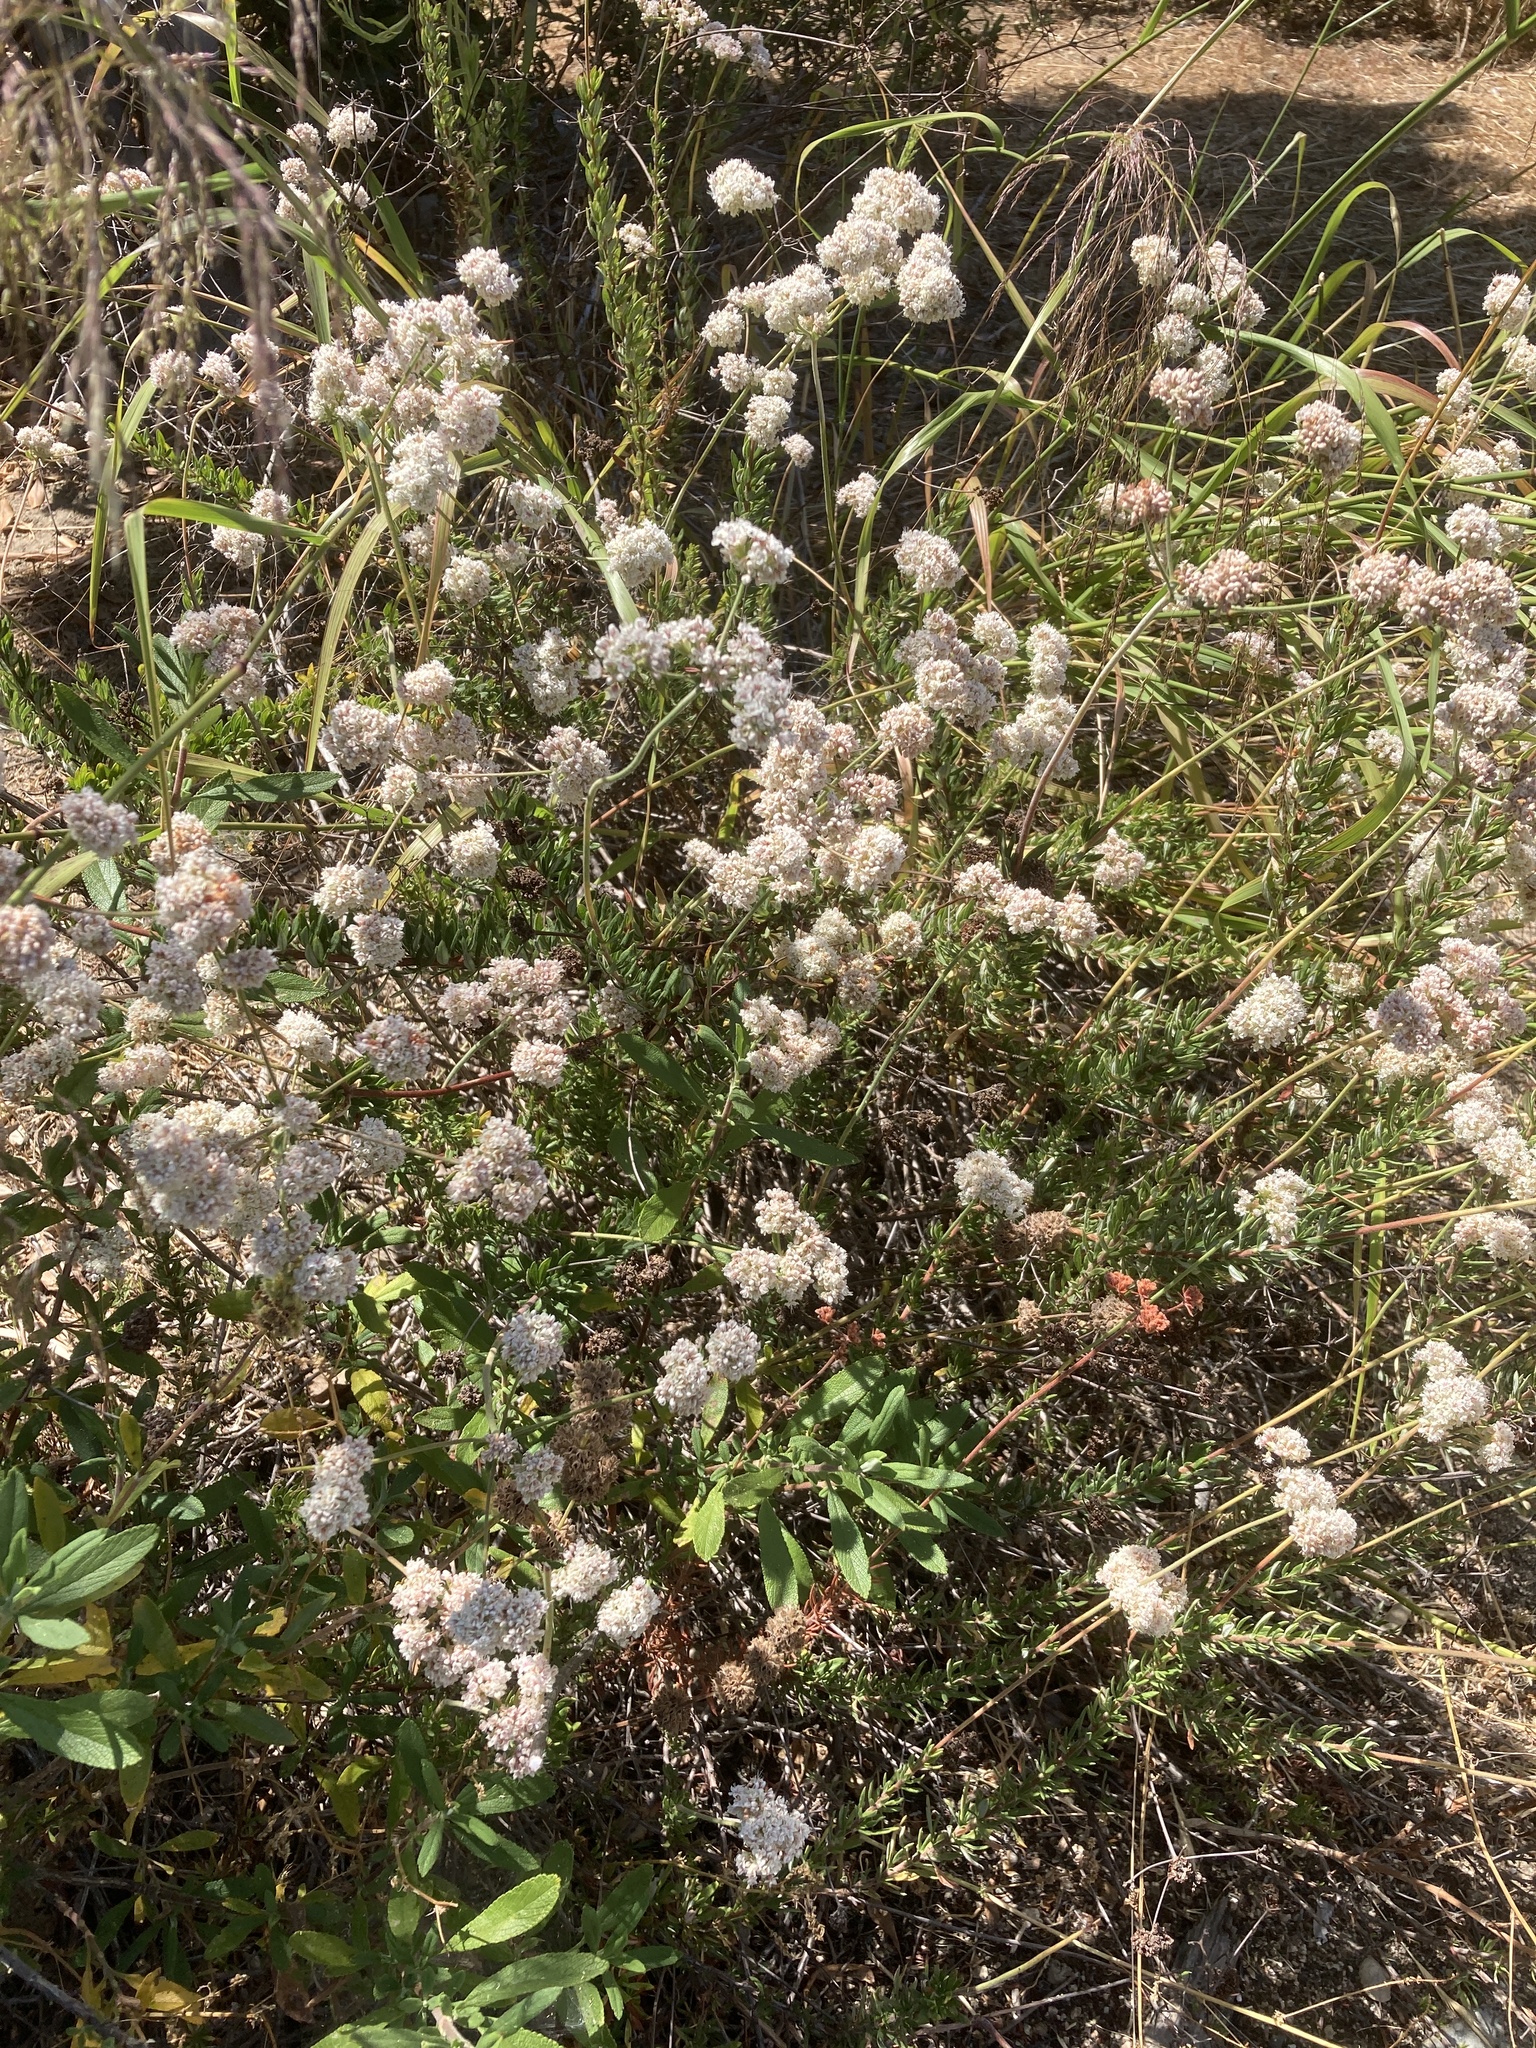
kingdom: Plantae
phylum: Tracheophyta
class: Magnoliopsida
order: Caryophyllales
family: Polygonaceae
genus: Eriogonum
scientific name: Eriogonum fasciculatum
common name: California wild buckwheat
